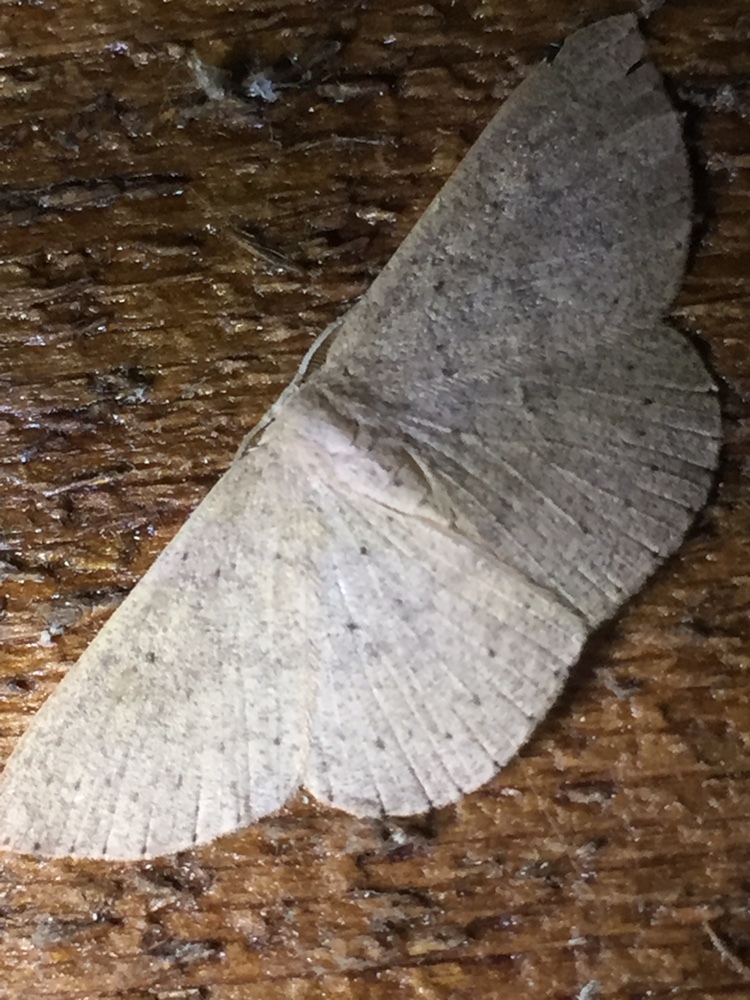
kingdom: Animalia
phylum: Arthropoda
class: Insecta
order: Lepidoptera
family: Geometridae
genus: Cyclophora
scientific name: Cyclophora obstataria
